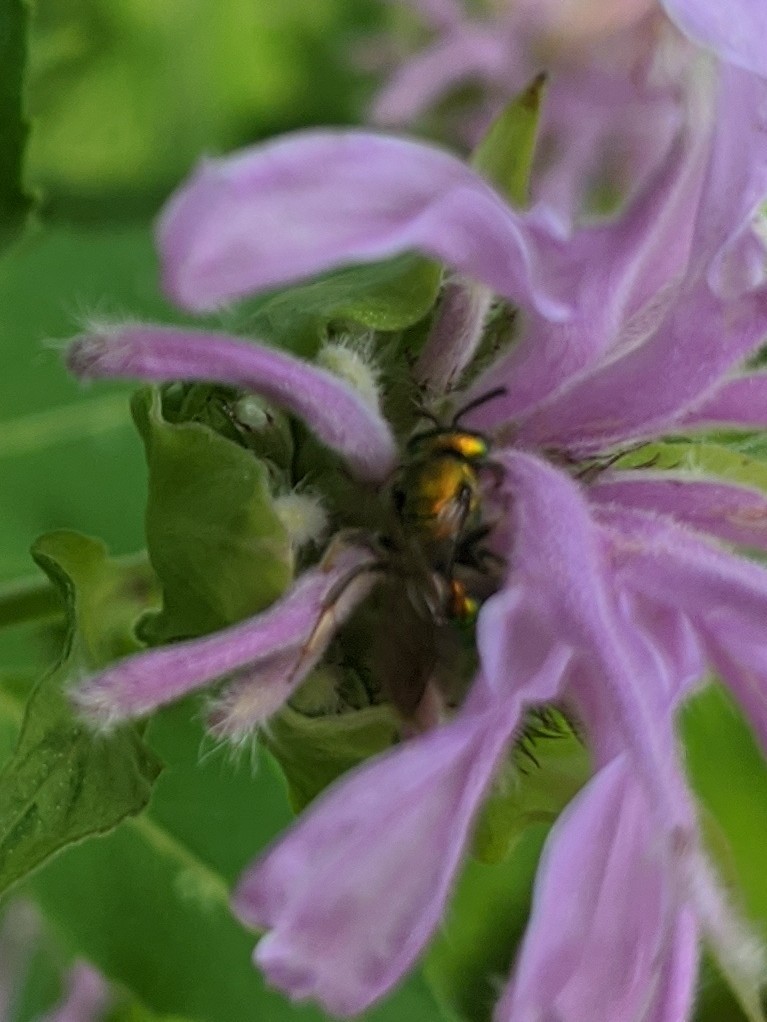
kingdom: Animalia
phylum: Arthropoda
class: Insecta
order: Hymenoptera
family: Halictidae
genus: Augochlora
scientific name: Augochlora pura
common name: Pure green sweat bee
